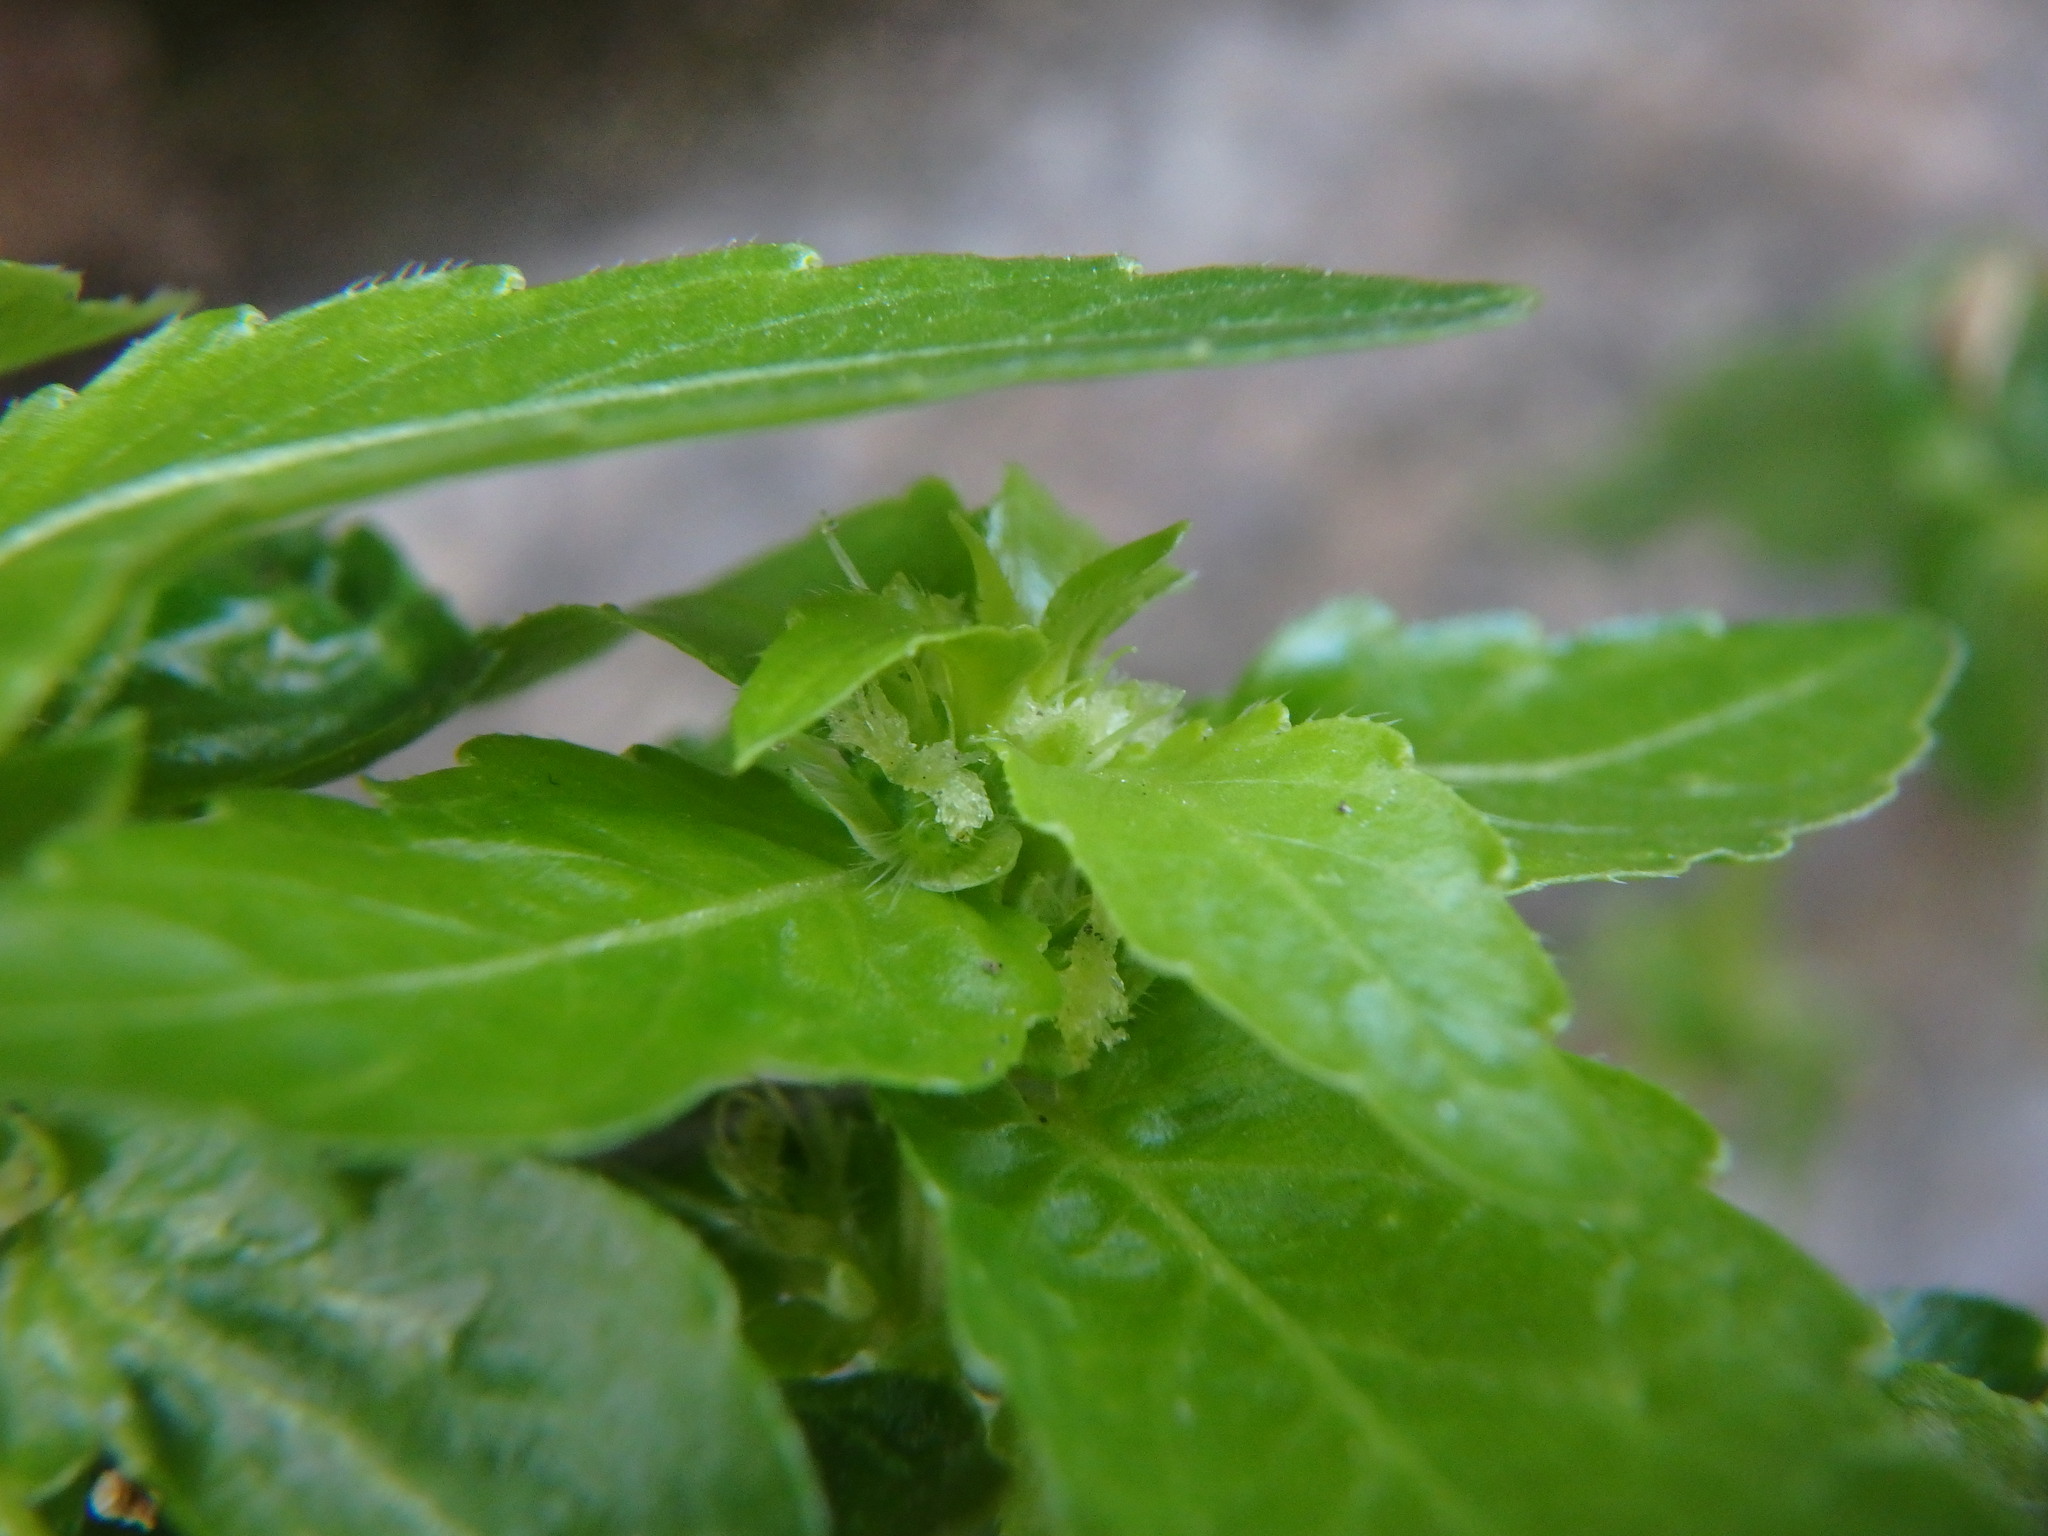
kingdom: Plantae
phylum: Tracheophyta
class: Magnoliopsida
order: Malpighiales
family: Euphorbiaceae
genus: Mercurialis
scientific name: Mercurialis annua
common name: Annual mercury
